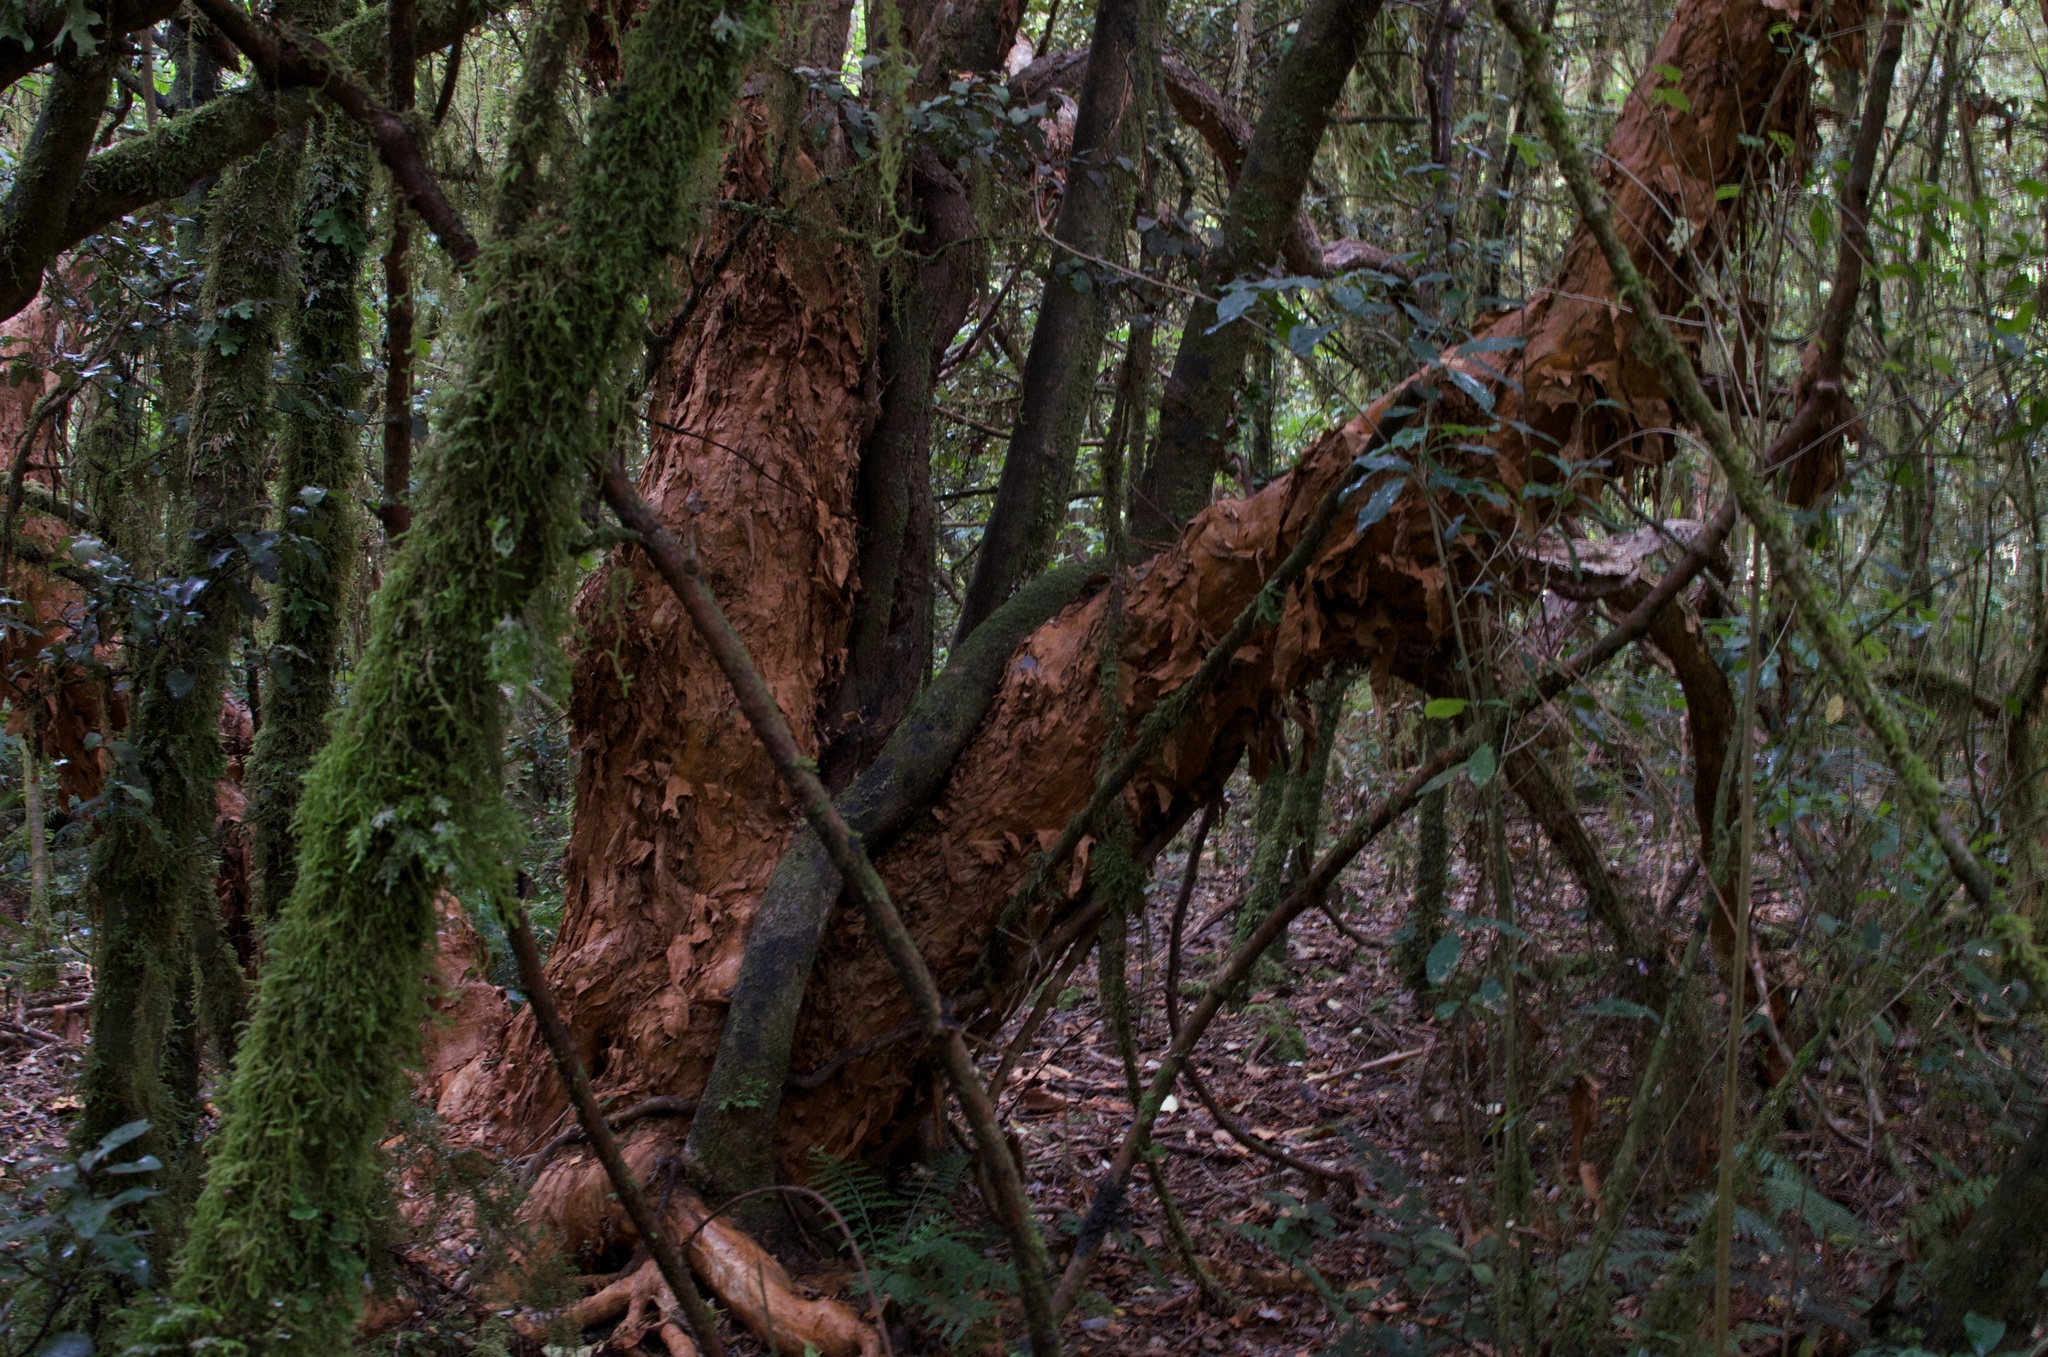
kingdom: Plantae
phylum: Tracheophyta
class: Magnoliopsida
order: Myrtales
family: Onagraceae
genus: Fuchsia
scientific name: Fuchsia excorticata
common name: Tree fuchsia
